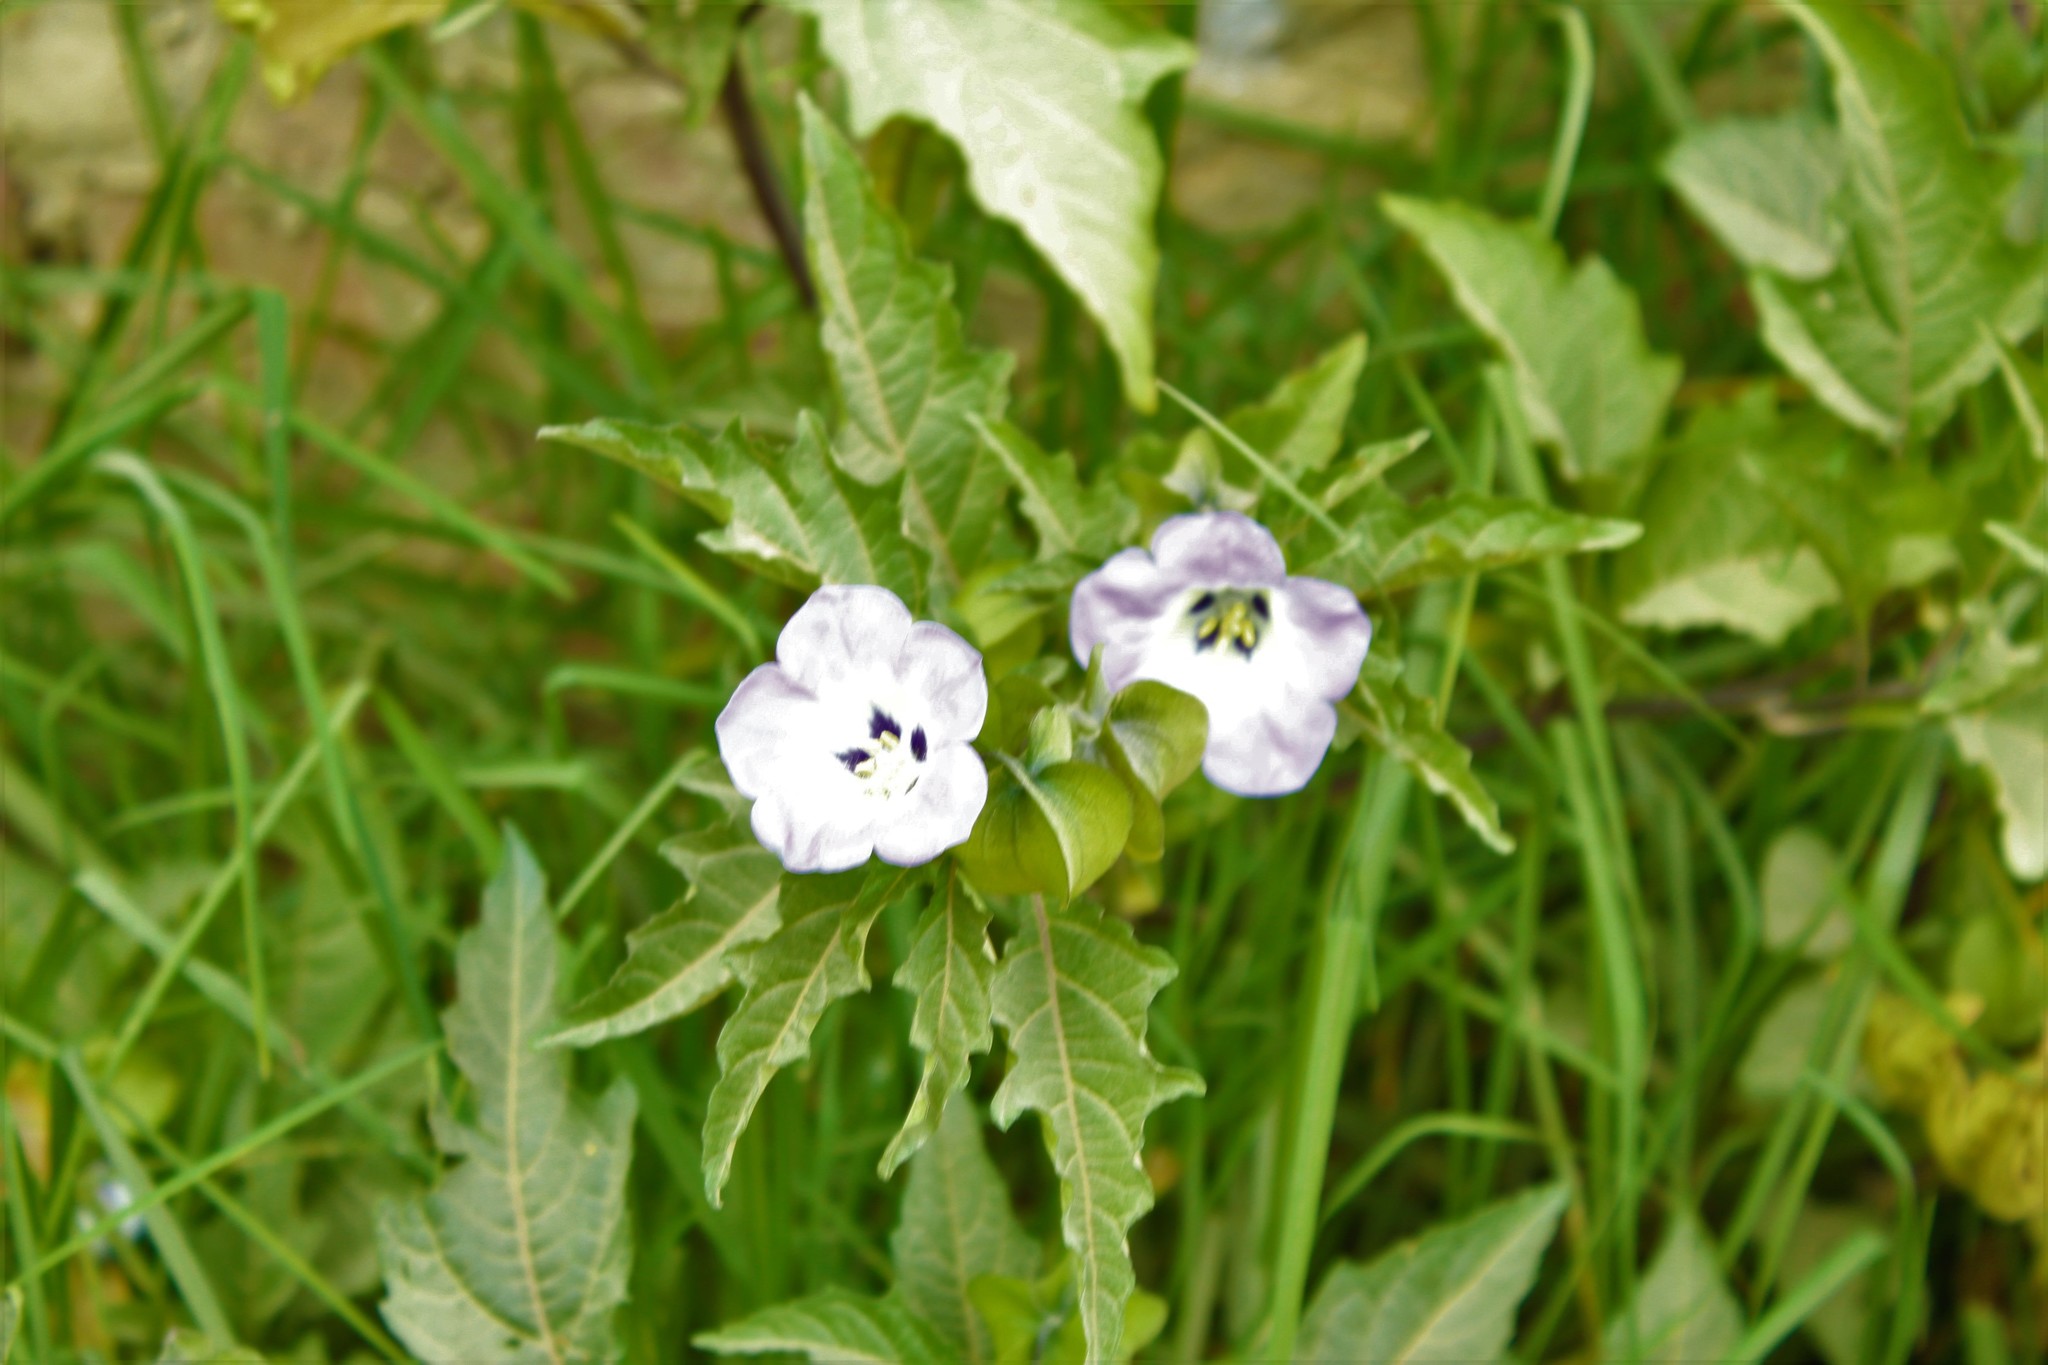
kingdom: Plantae
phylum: Tracheophyta
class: Magnoliopsida
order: Solanales
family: Solanaceae
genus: Nicandra
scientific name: Nicandra physalodes
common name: Apple-of-peru
